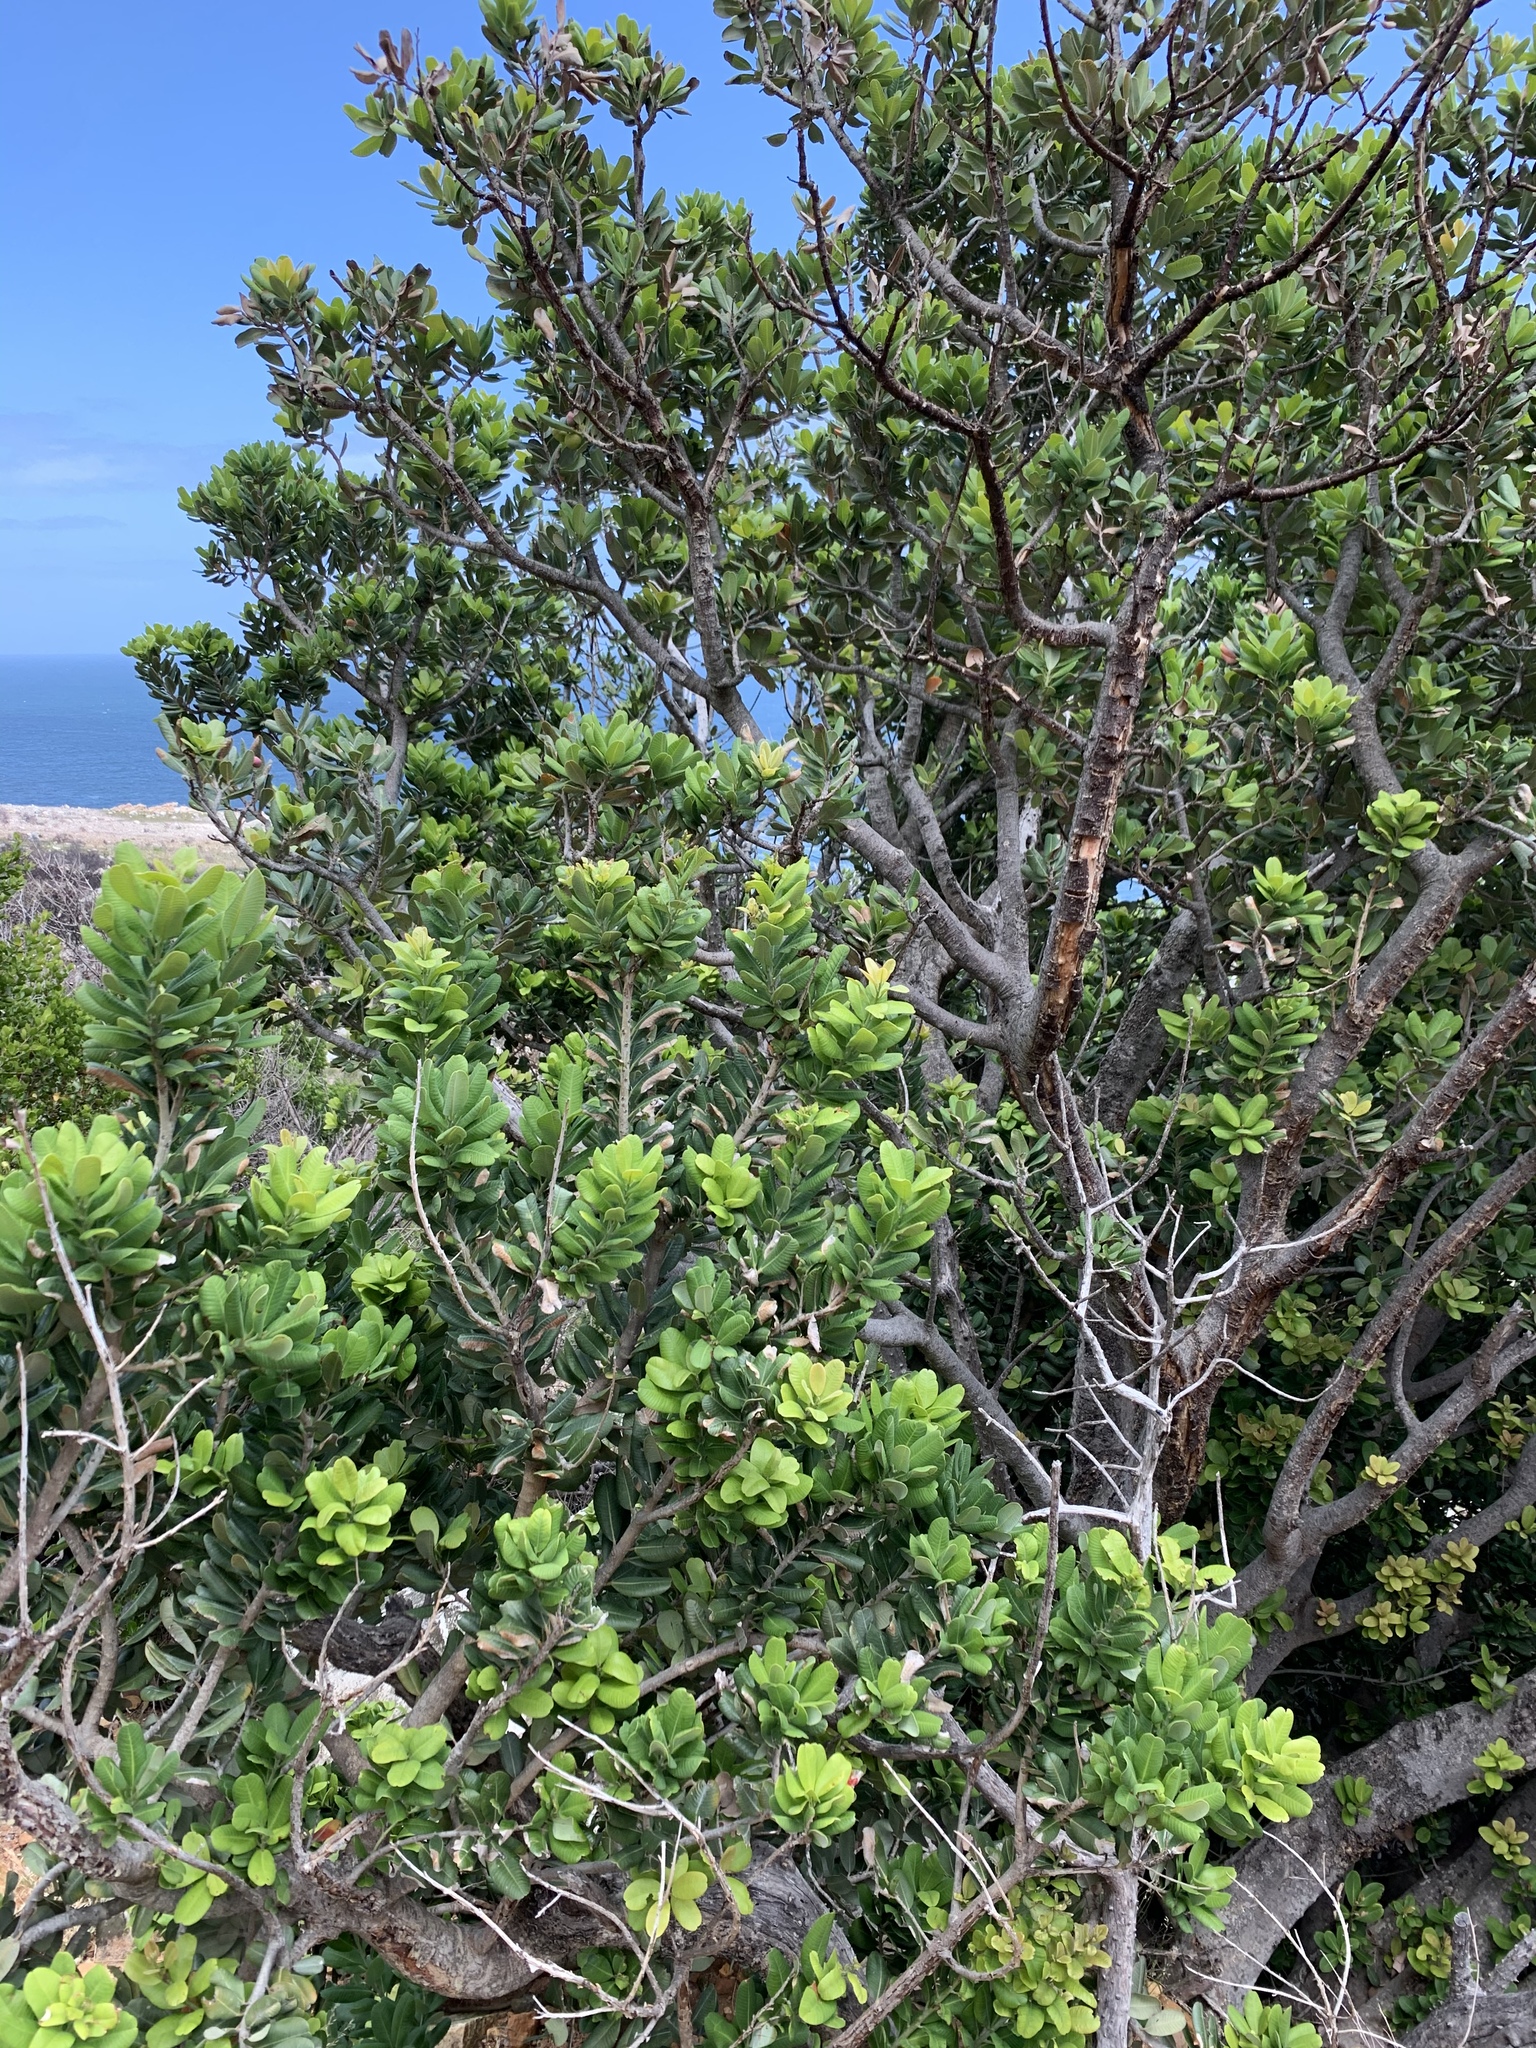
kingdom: Plantae
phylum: Tracheophyta
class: Magnoliopsida
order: Sapindales
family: Anacardiaceae
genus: Heeria
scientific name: Heeria argentea
